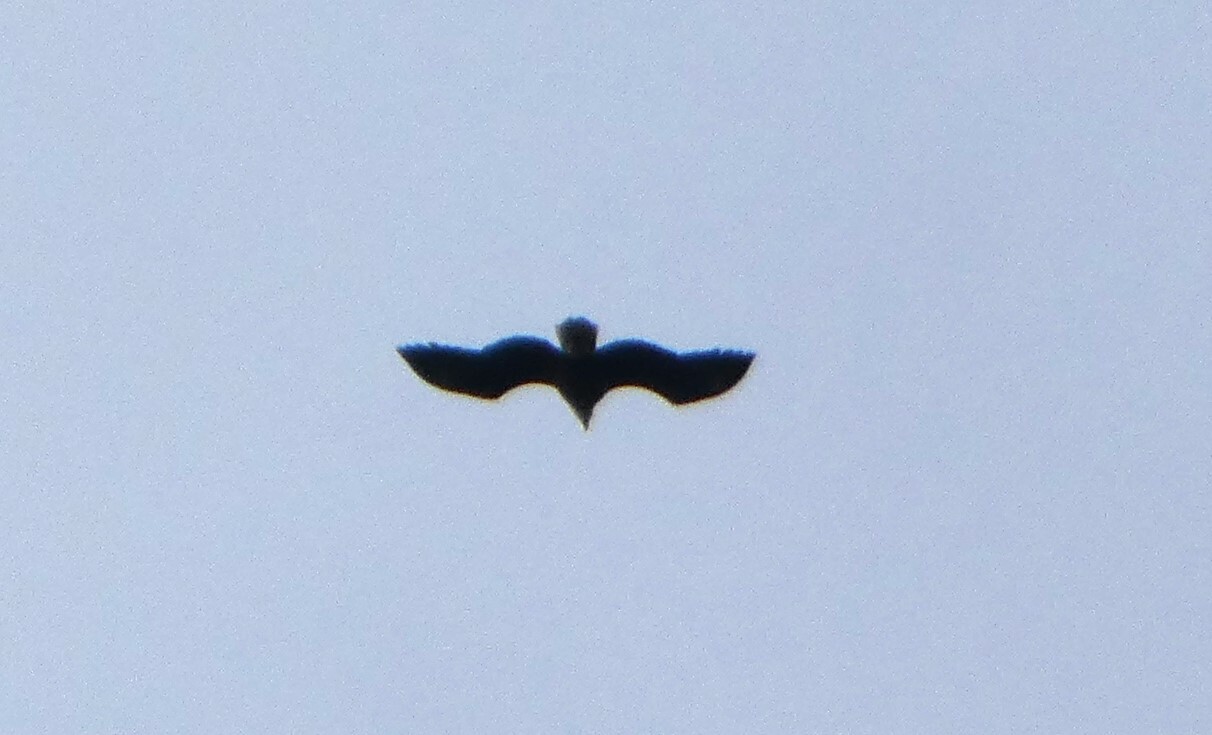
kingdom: Animalia
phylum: Chordata
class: Aves
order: Accipitriformes
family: Accipitridae
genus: Haliaeetus
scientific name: Haliaeetus leucocephalus
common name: Bald eagle
